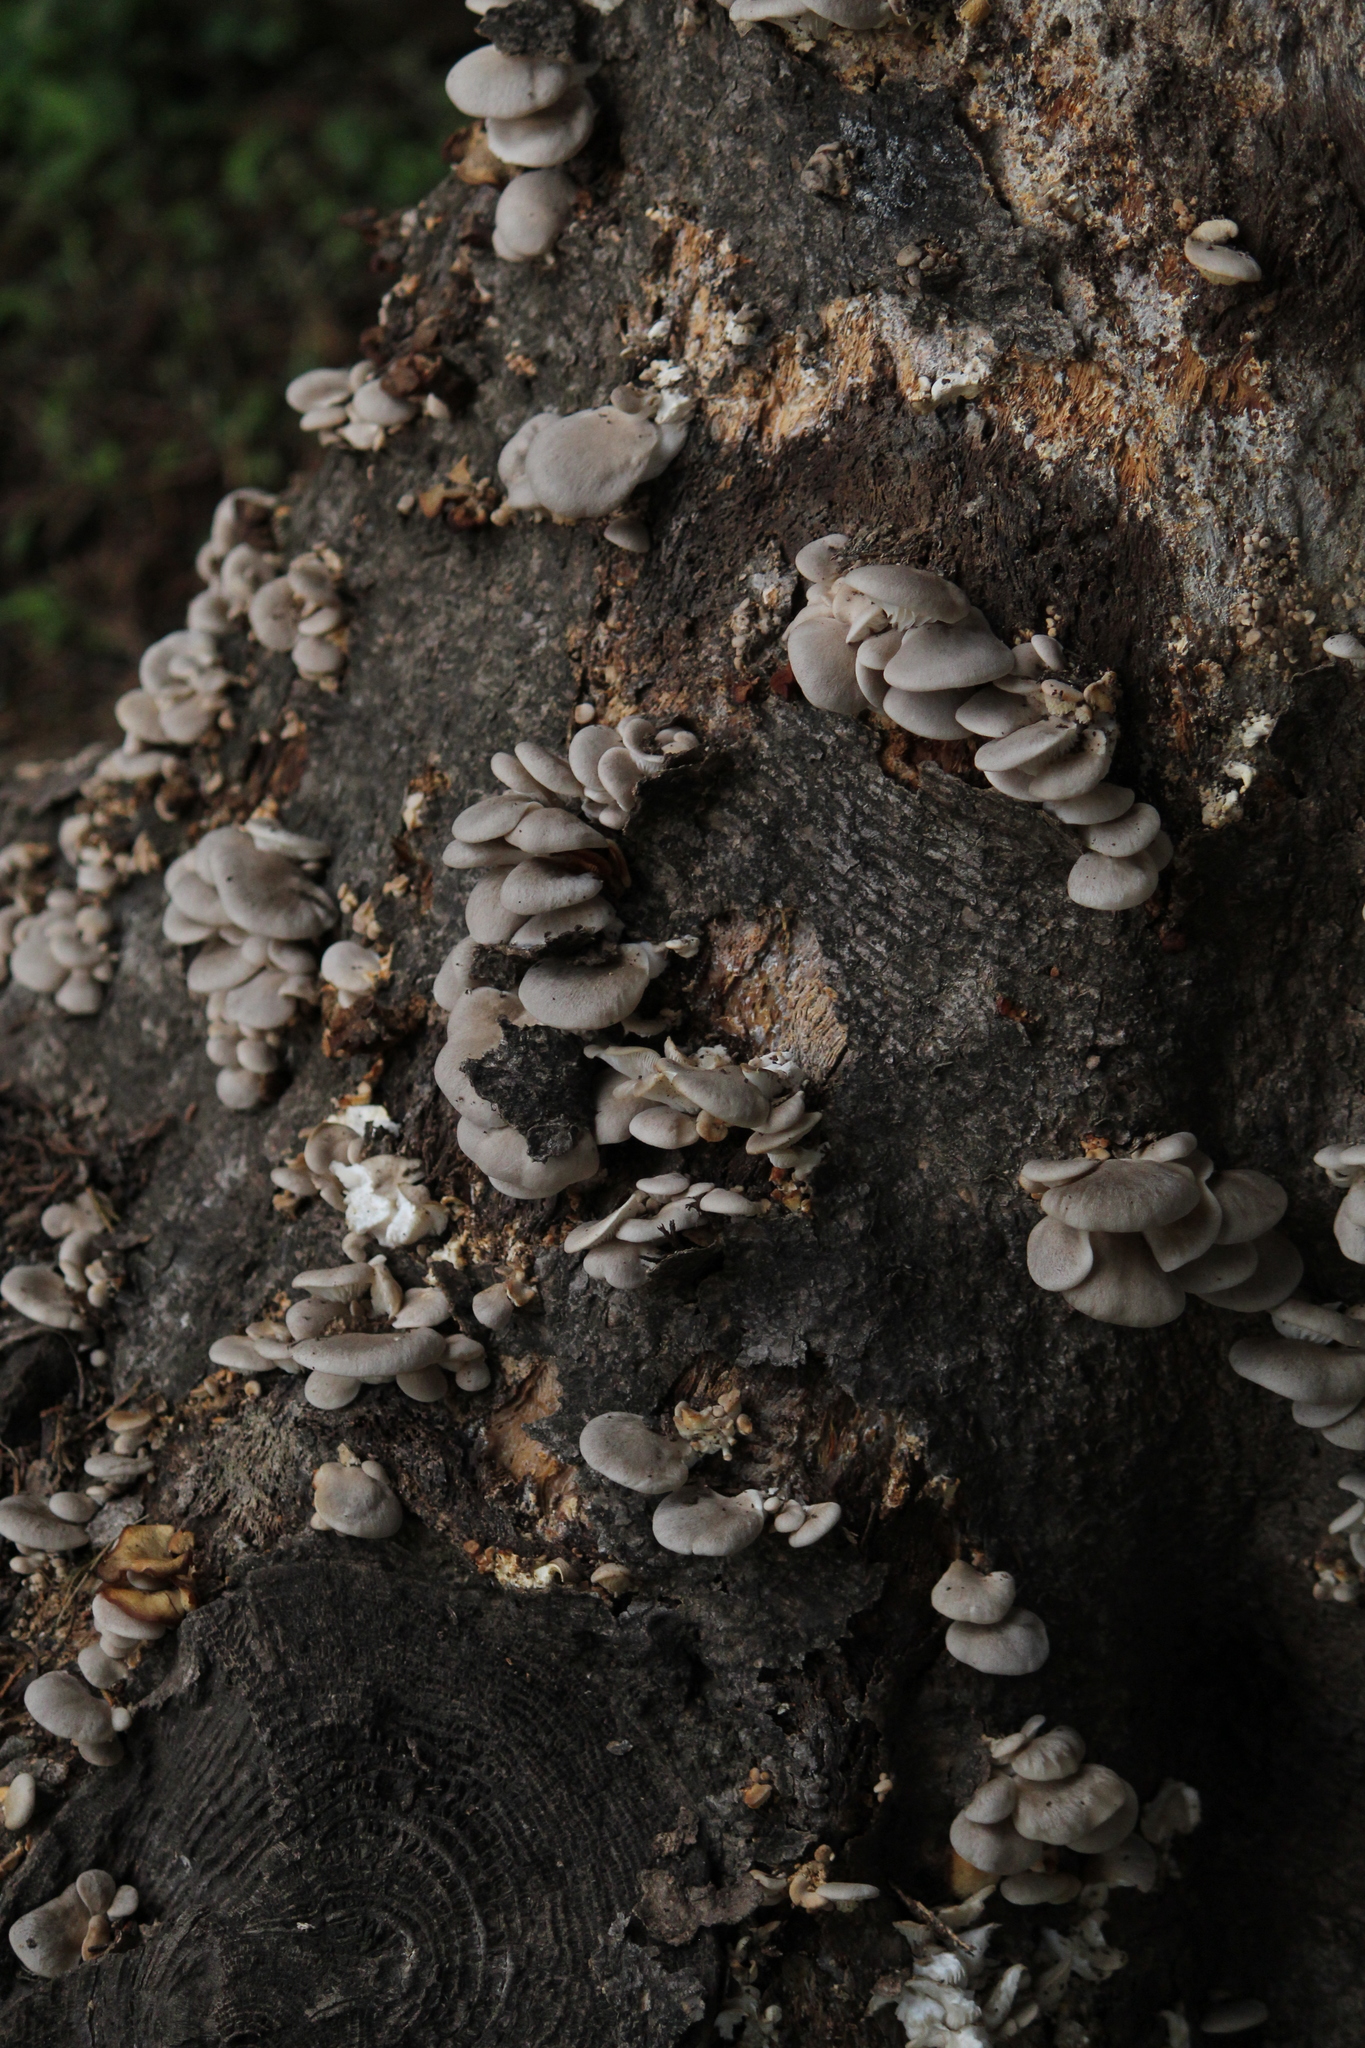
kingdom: Fungi
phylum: Basidiomycota
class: Agaricomycetes
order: Agaricales
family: Pleurotaceae
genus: Pleurotus
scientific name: Pleurotus ostreatus
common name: Oyster mushroom
